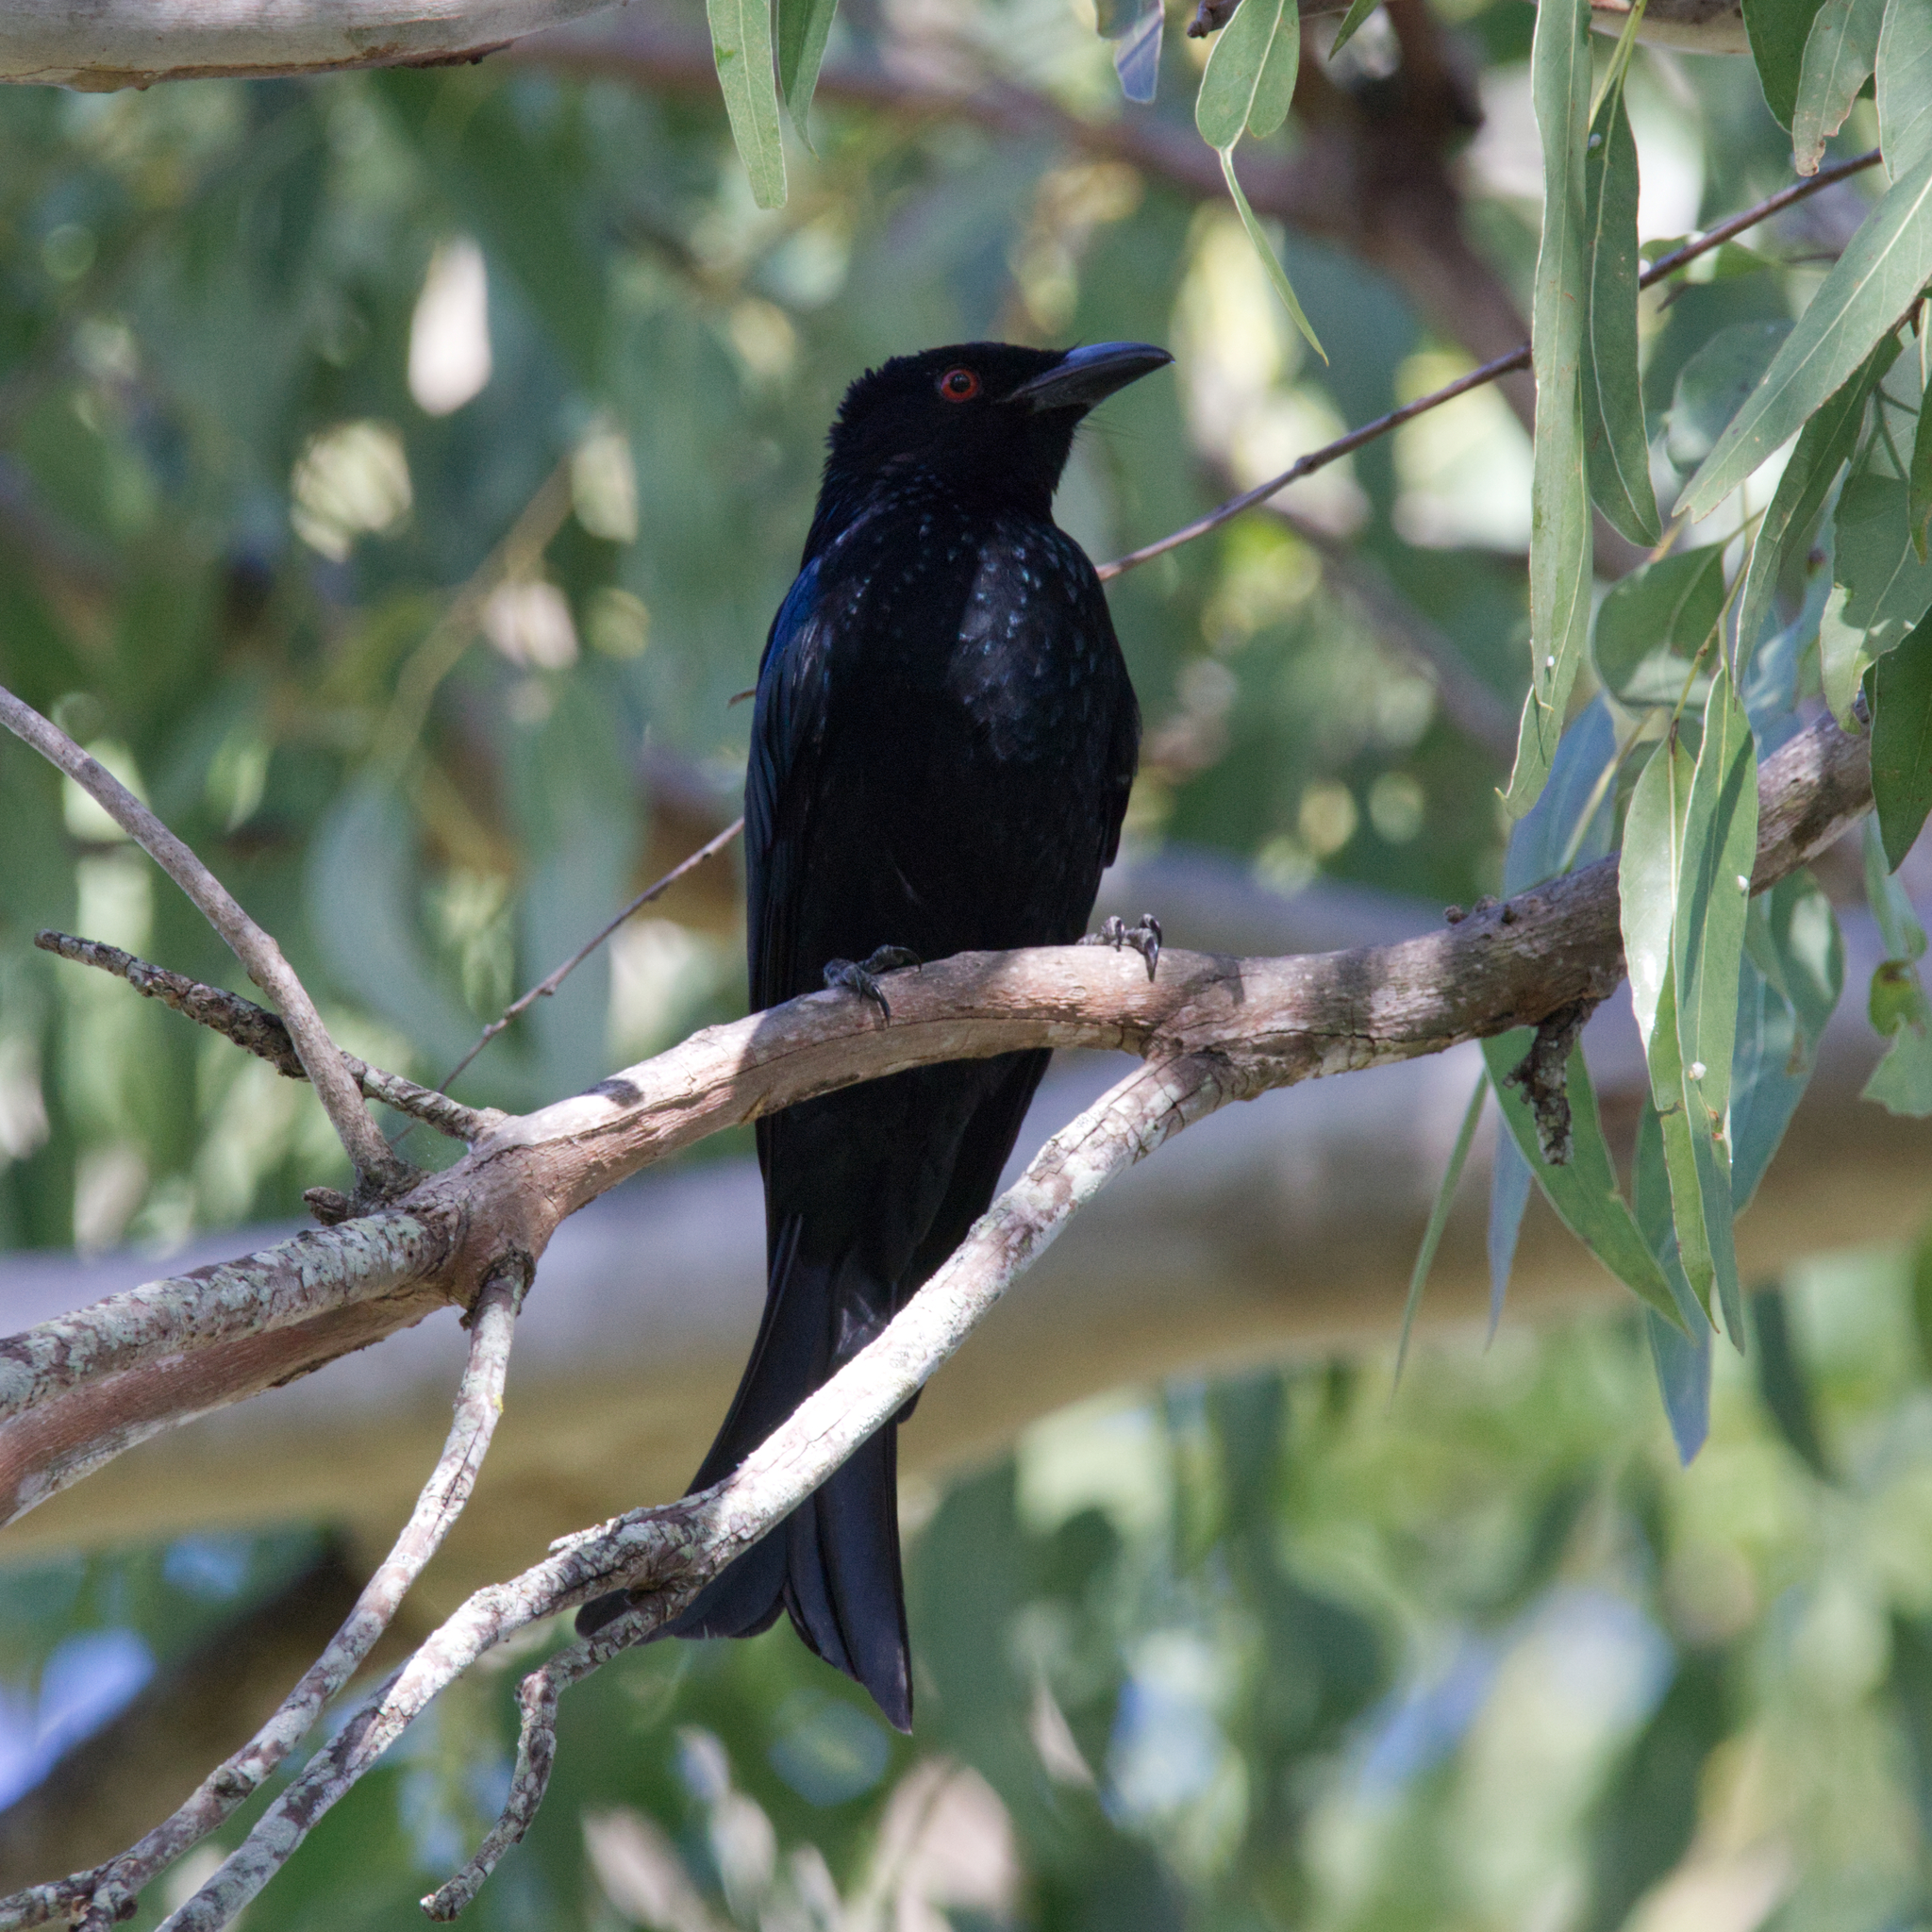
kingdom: Animalia
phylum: Chordata
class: Aves
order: Passeriformes
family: Dicruridae
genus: Dicrurus
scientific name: Dicrurus bracteatus
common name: Spangled drongo
